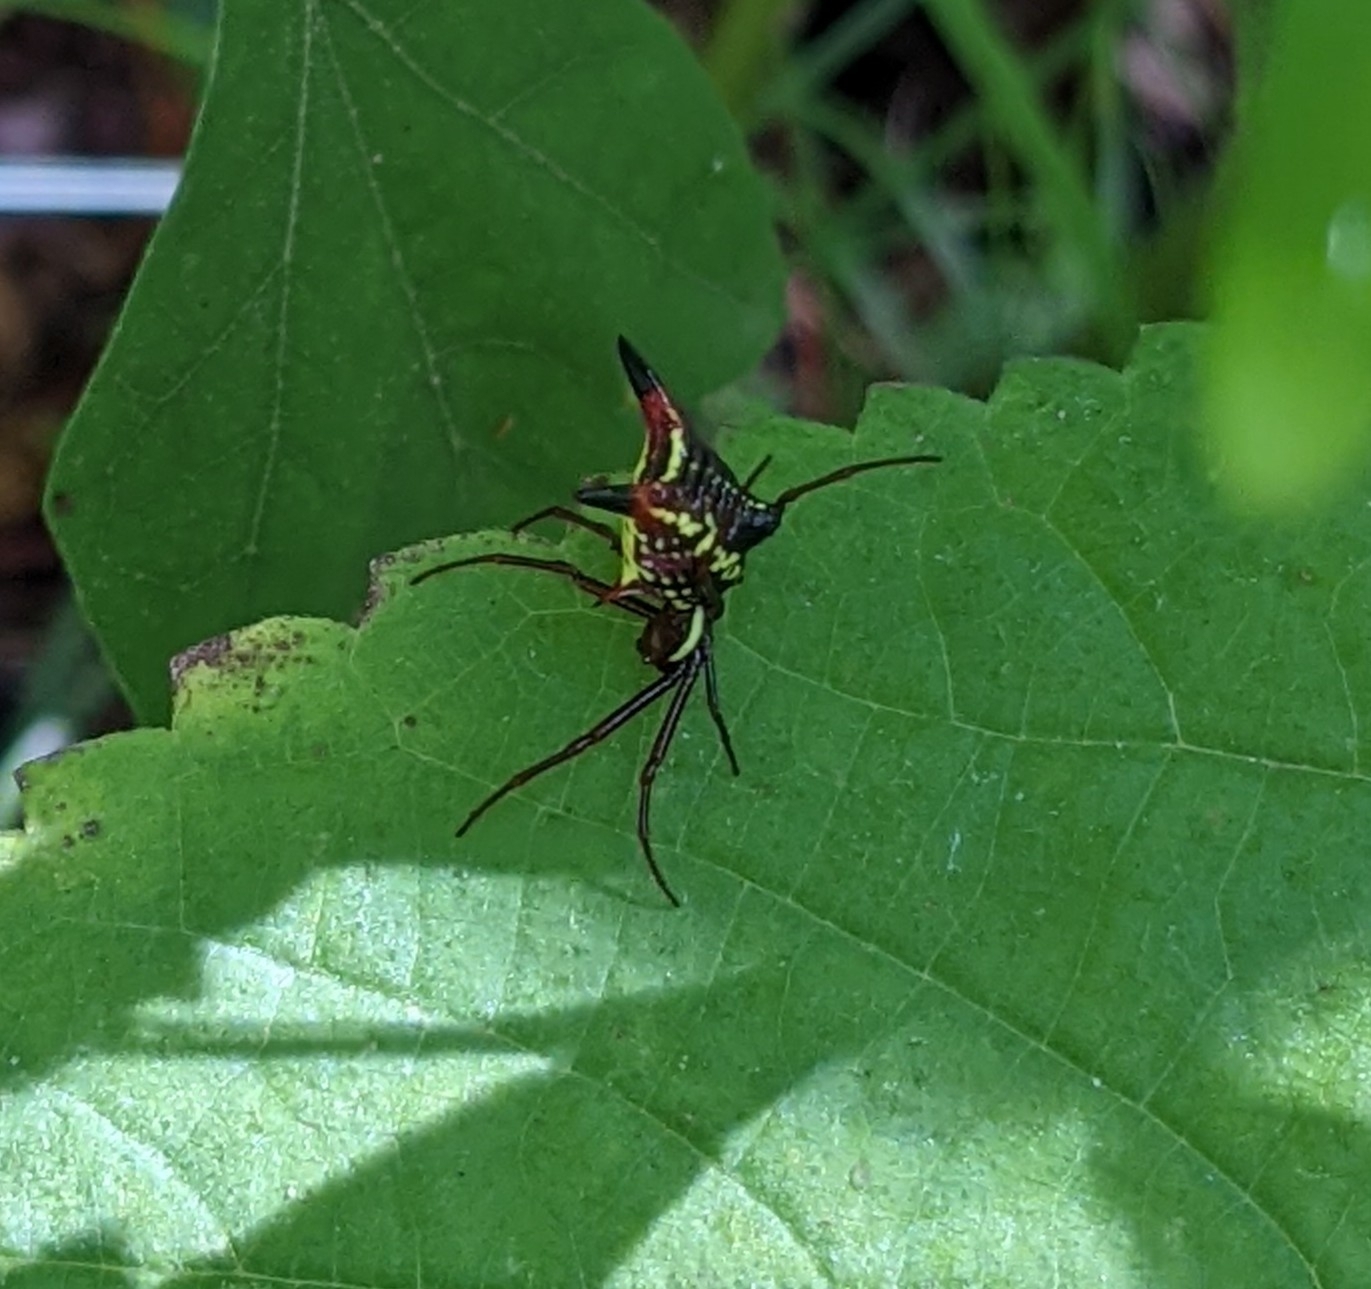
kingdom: Animalia
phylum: Arthropoda
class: Arachnida
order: Araneae
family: Araneidae
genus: Micrathena
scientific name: Micrathena sagittata
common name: Orb weavers
